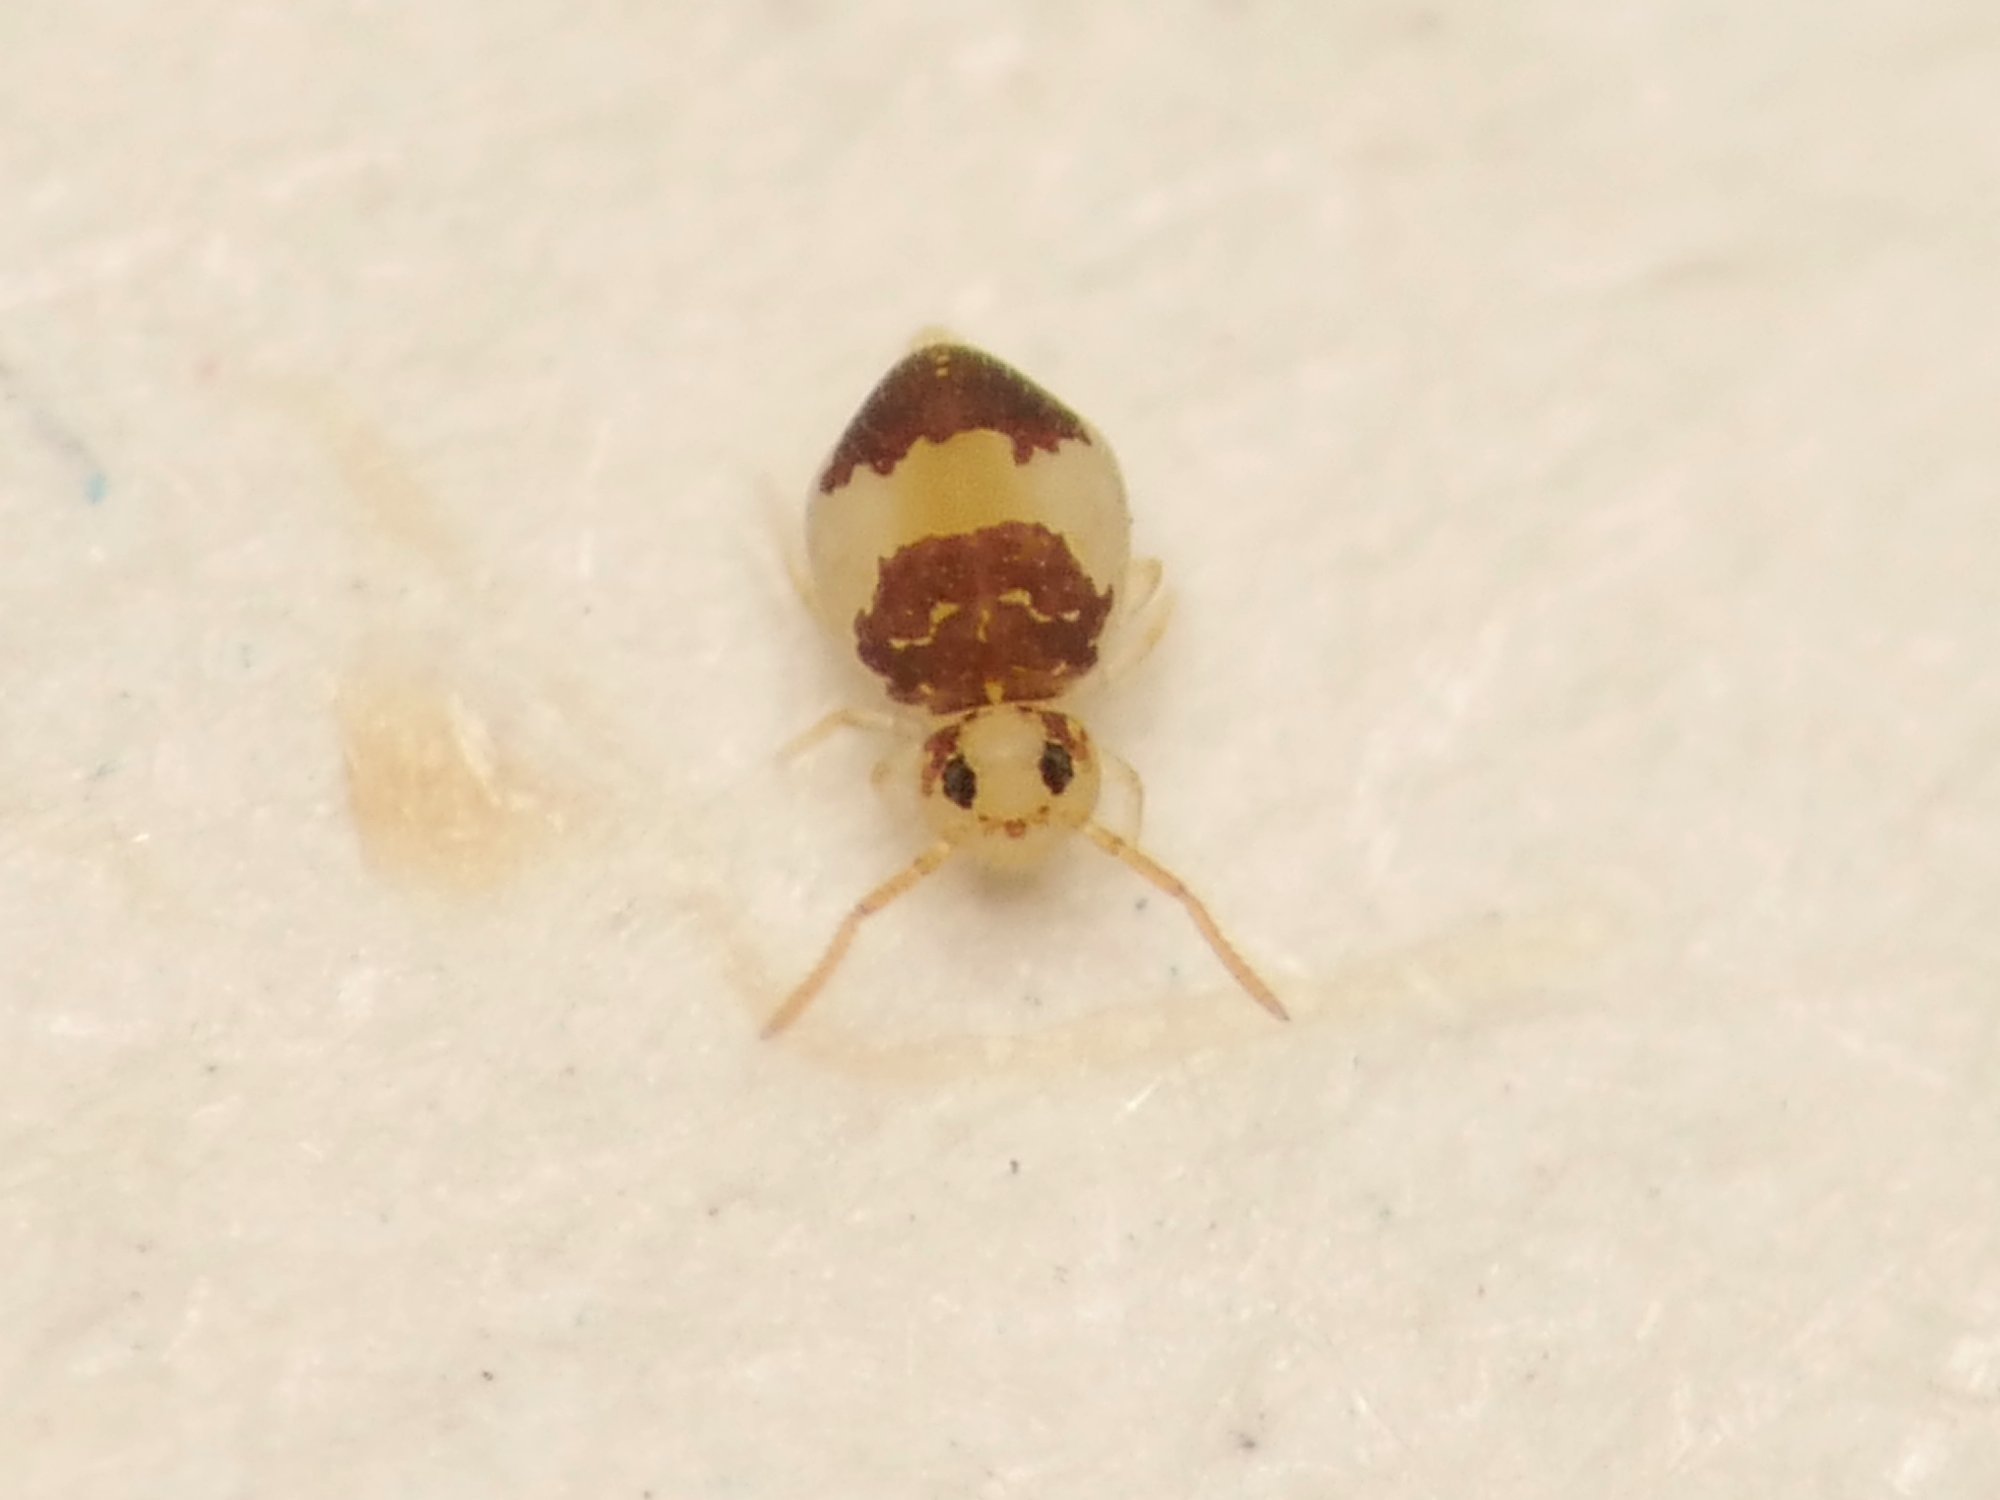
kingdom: Animalia
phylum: Arthropoda
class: Collembola
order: Symphypleona
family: Bourletiellidae
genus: Deuterosminthurus
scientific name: Deuterosminthurus bicinctus
